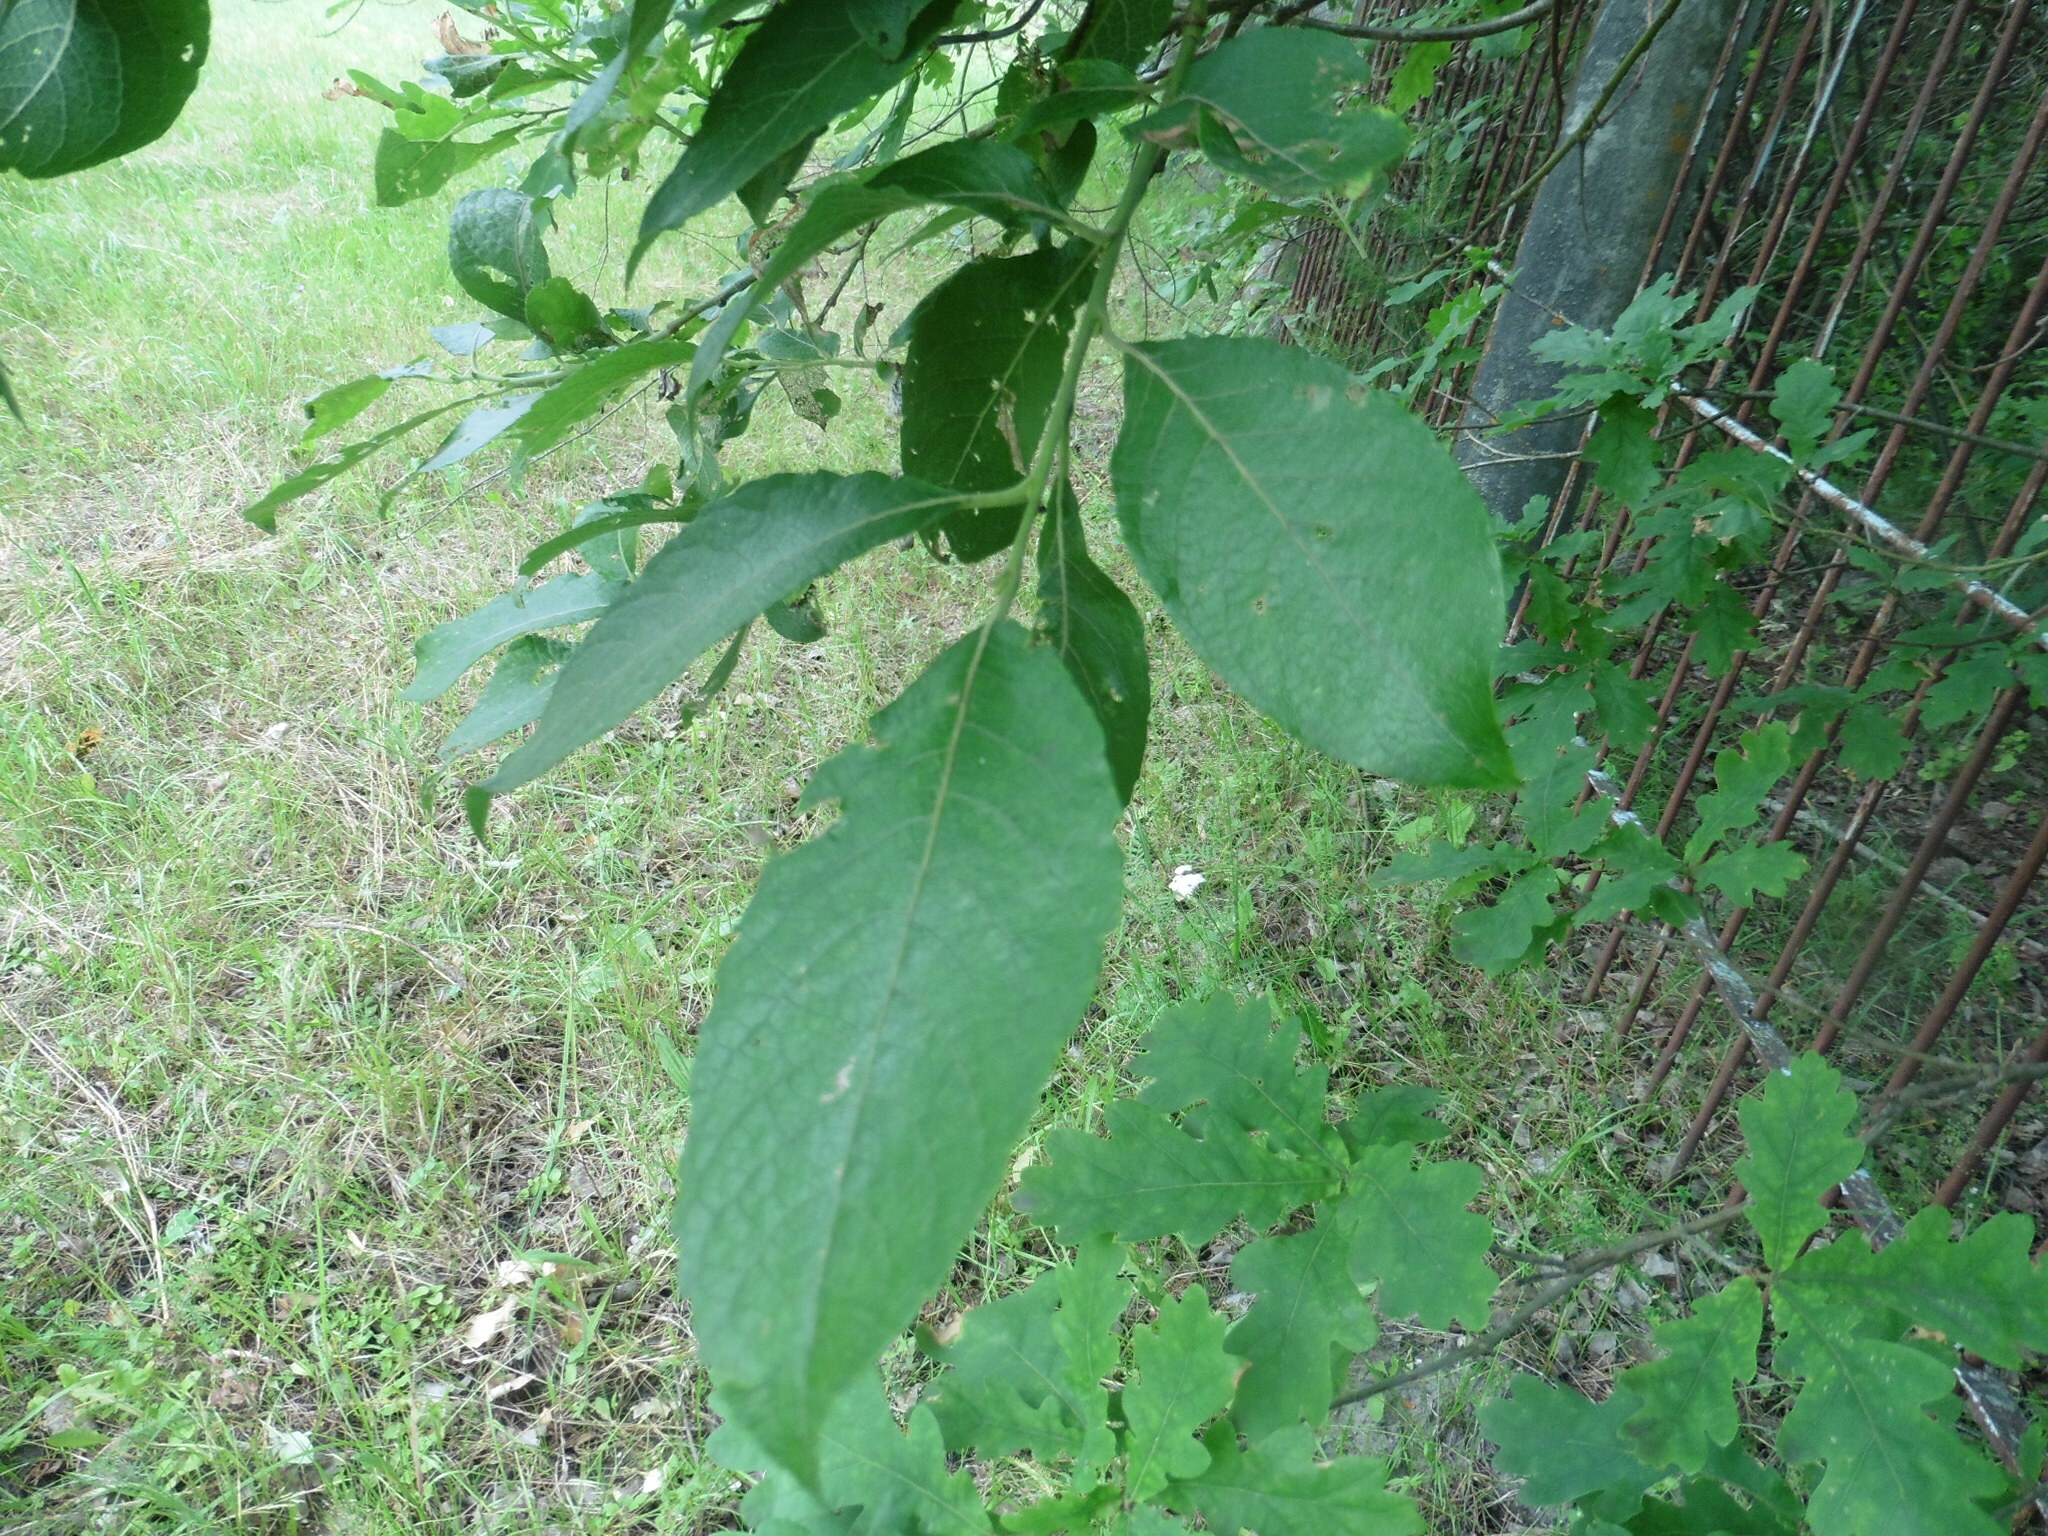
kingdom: Plantae
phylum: Tracheophyta
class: Magnoliopsida
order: Malpighiales
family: Salicaceae
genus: Salix
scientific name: Salix caprea
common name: Goat willow
